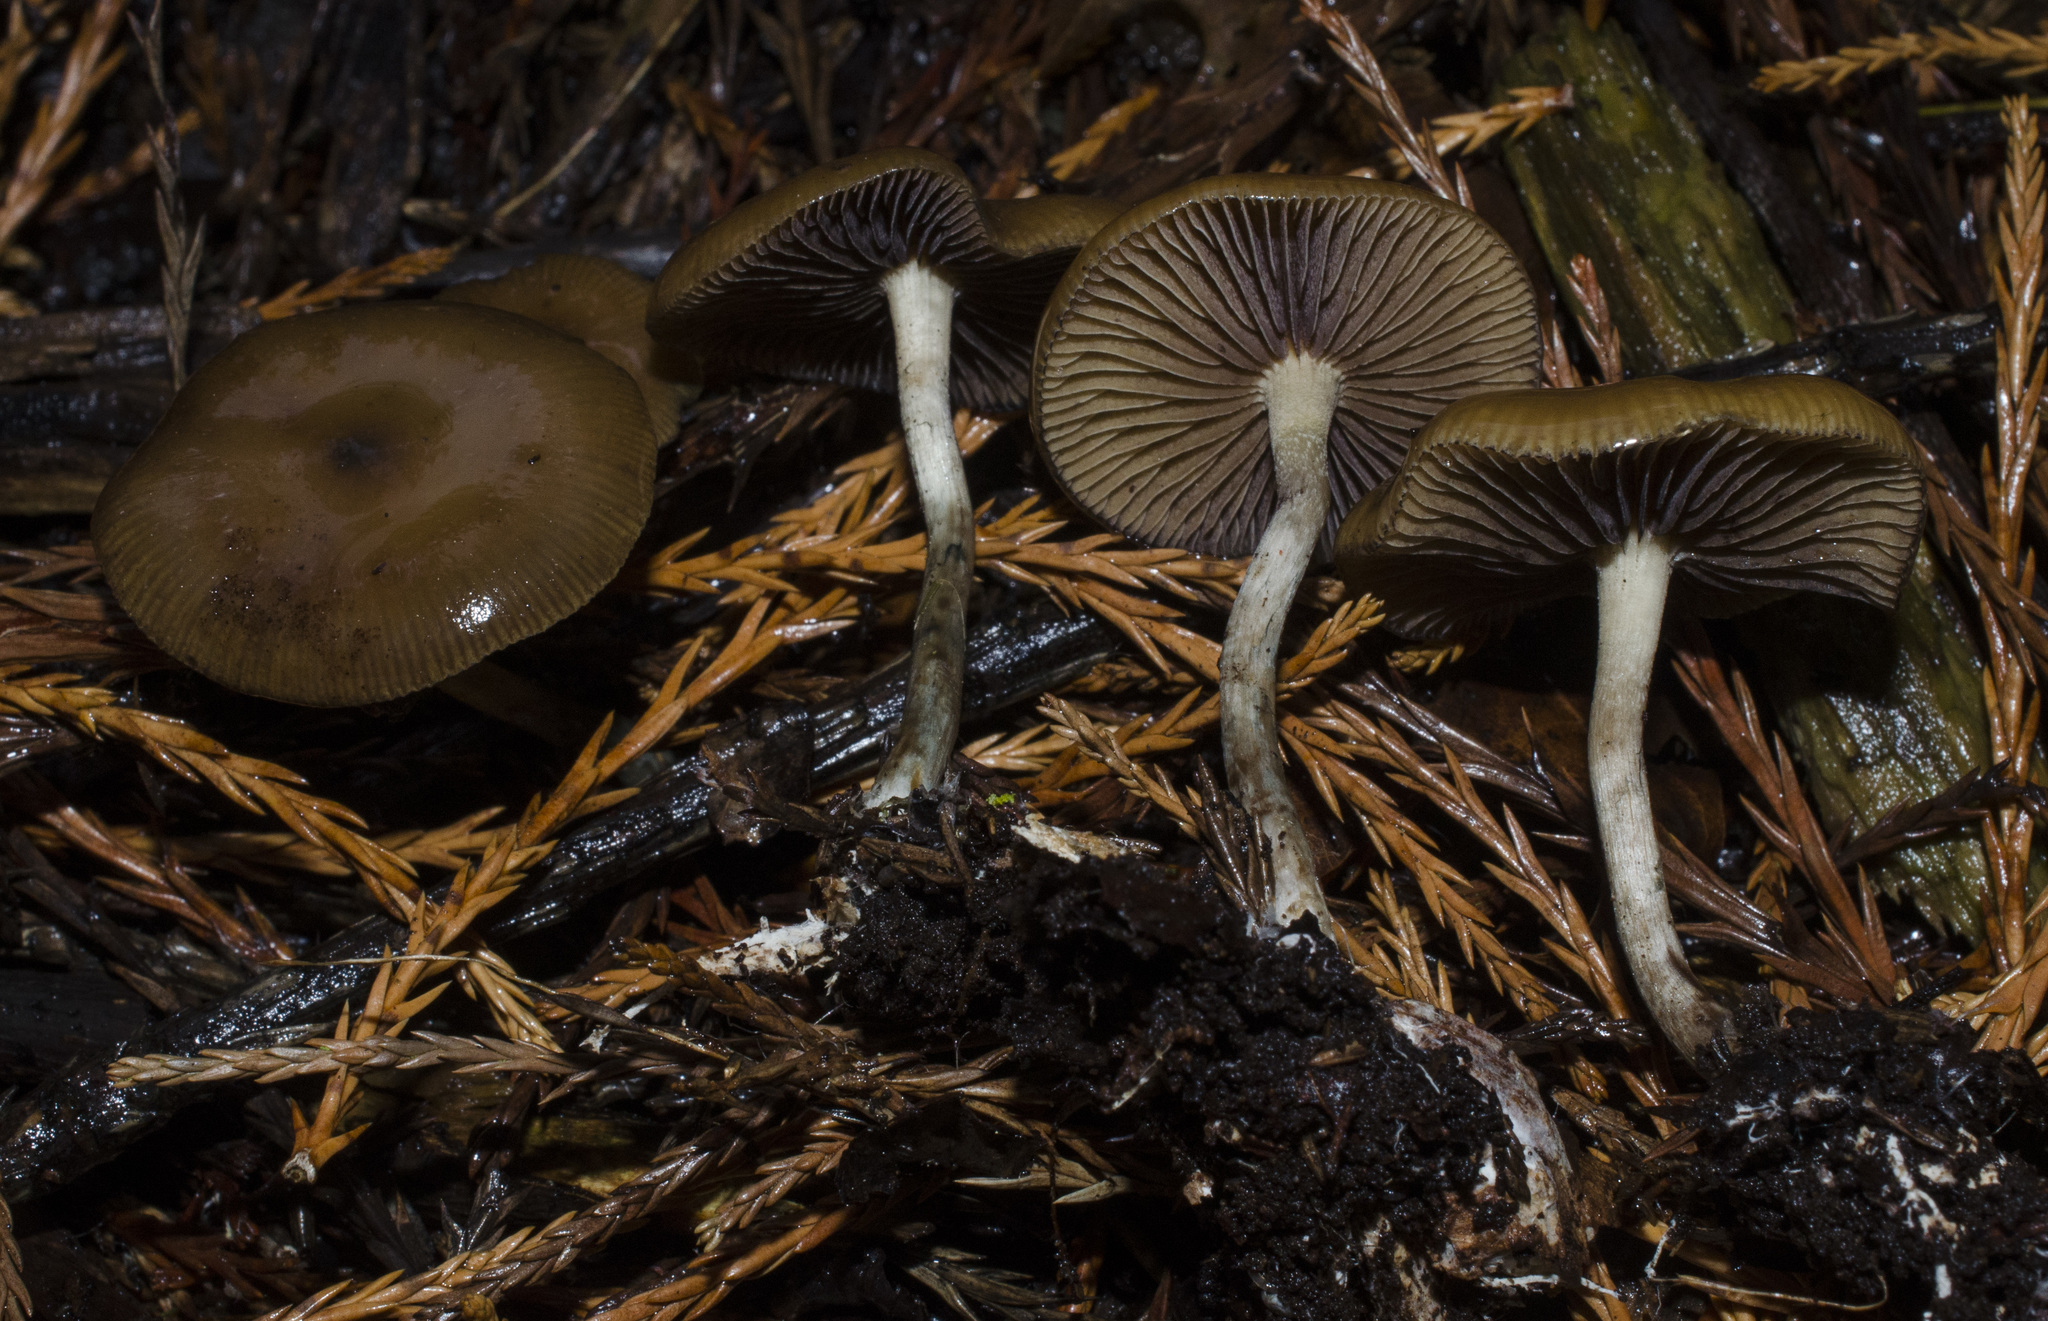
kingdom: Fungi
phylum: Basidiomycota
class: Agaricomycetes
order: Agaricales
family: Hymenogastraceae
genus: Psilocybe
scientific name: Psilocybe cyanescens
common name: Blueleg brownie
